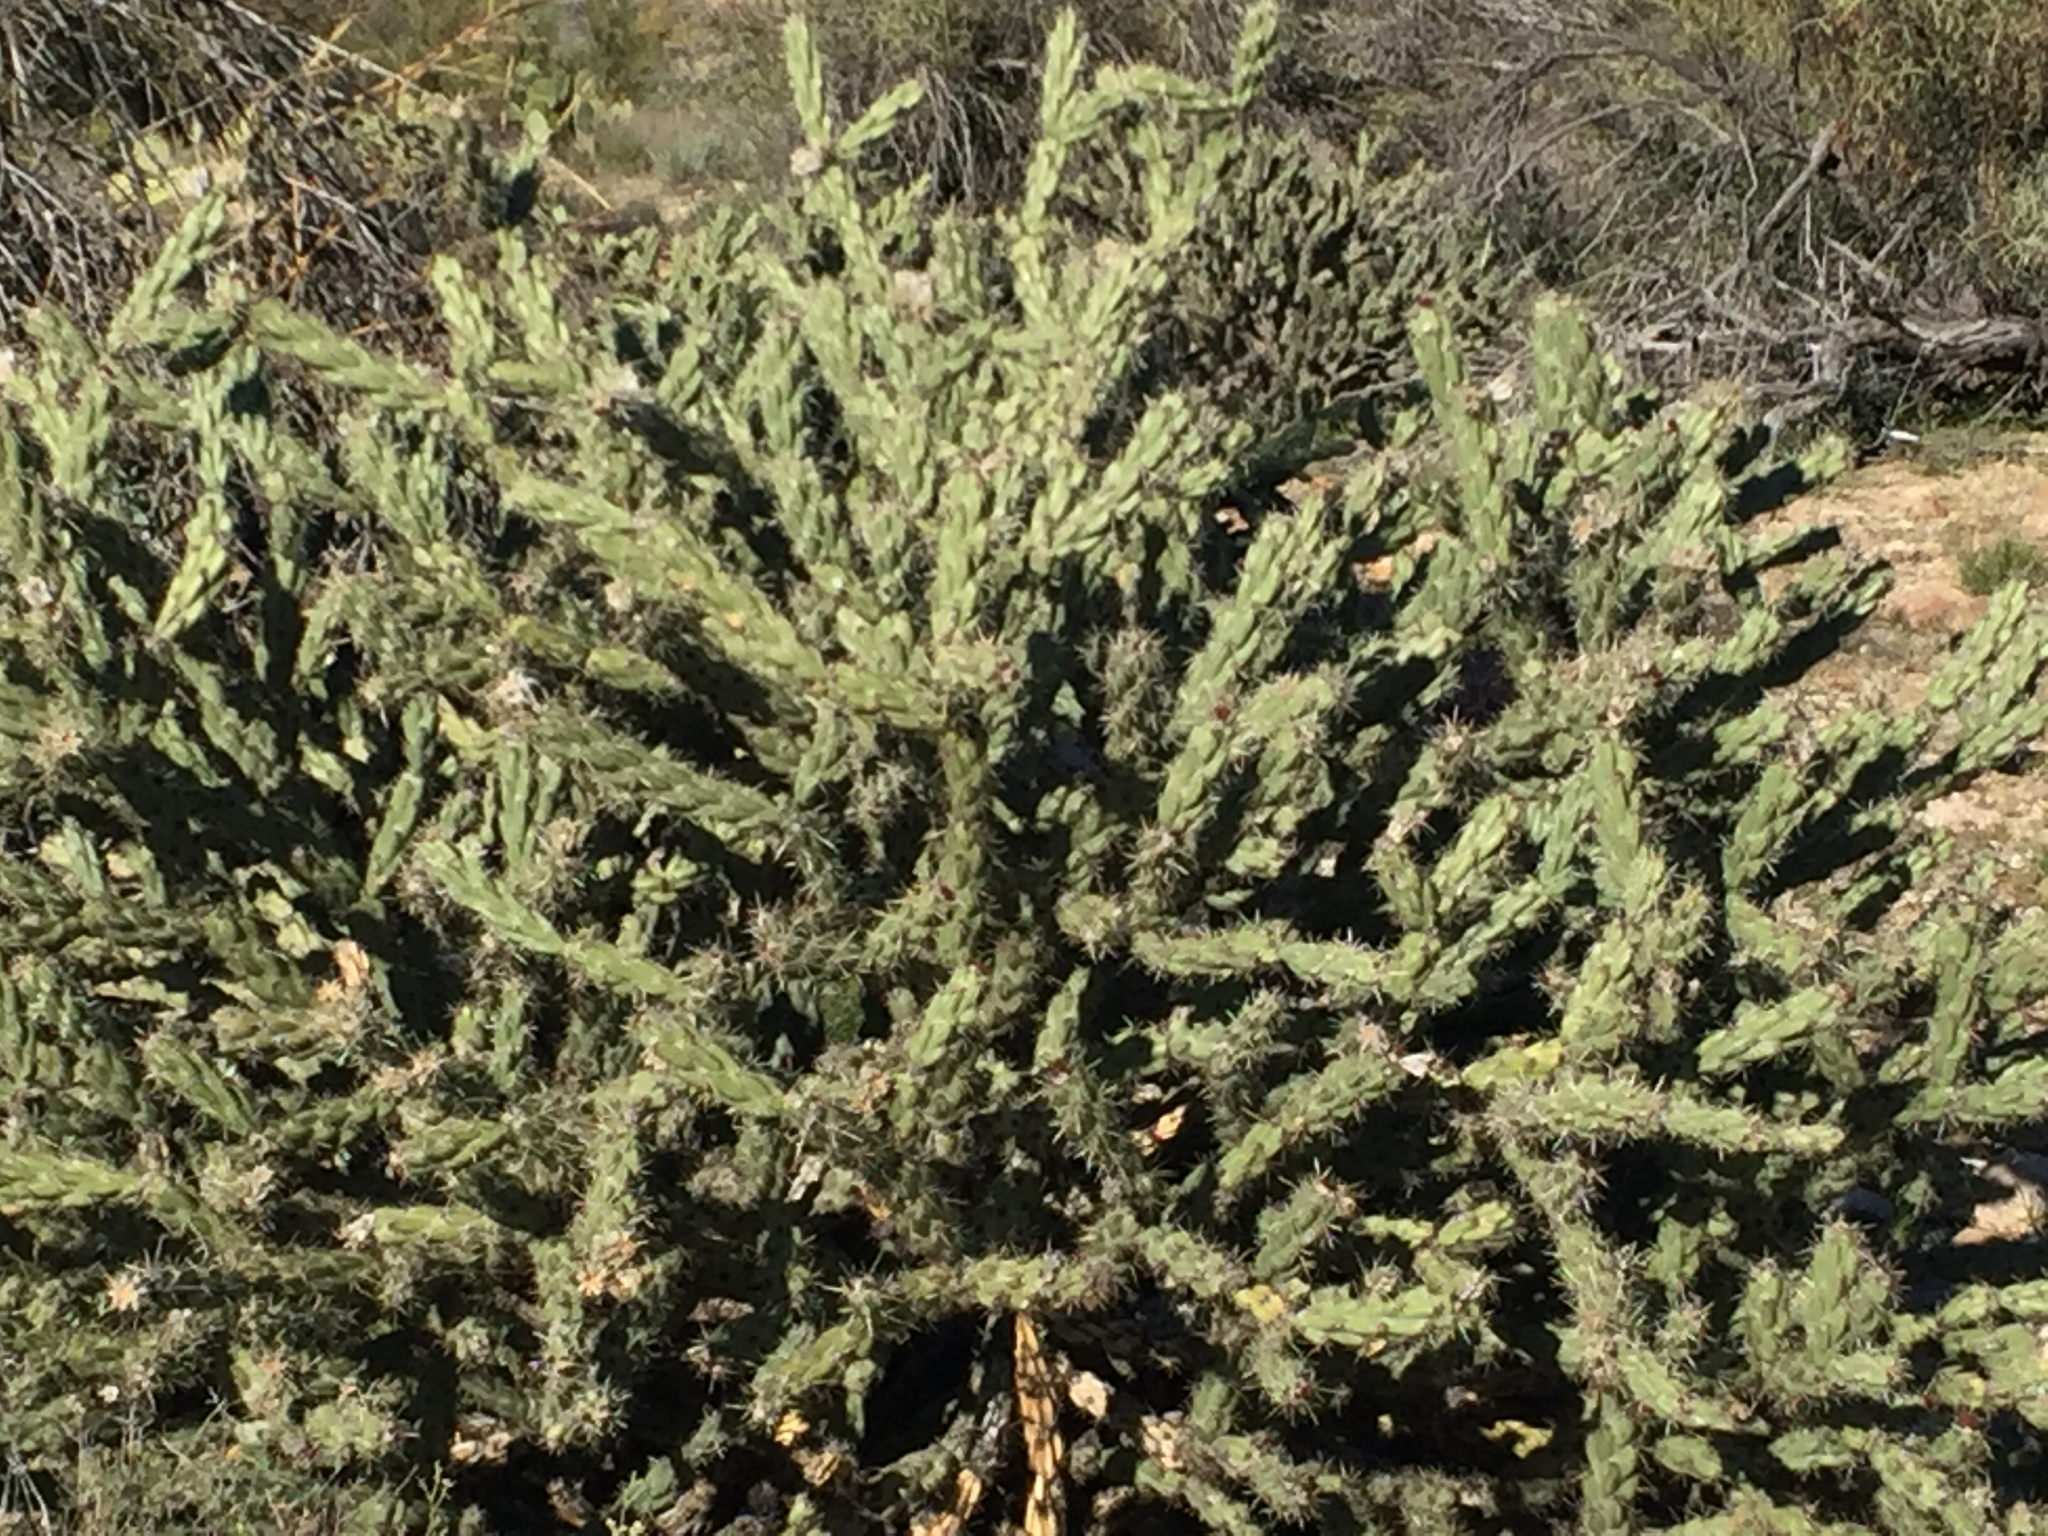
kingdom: Plantae
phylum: Tracheophyta
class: Magnoliopsida
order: Caryophyllales
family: Cactaceae
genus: Cylindropuntia
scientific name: Cylindropuntia acanthocarpa
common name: Buckhorn cholla
